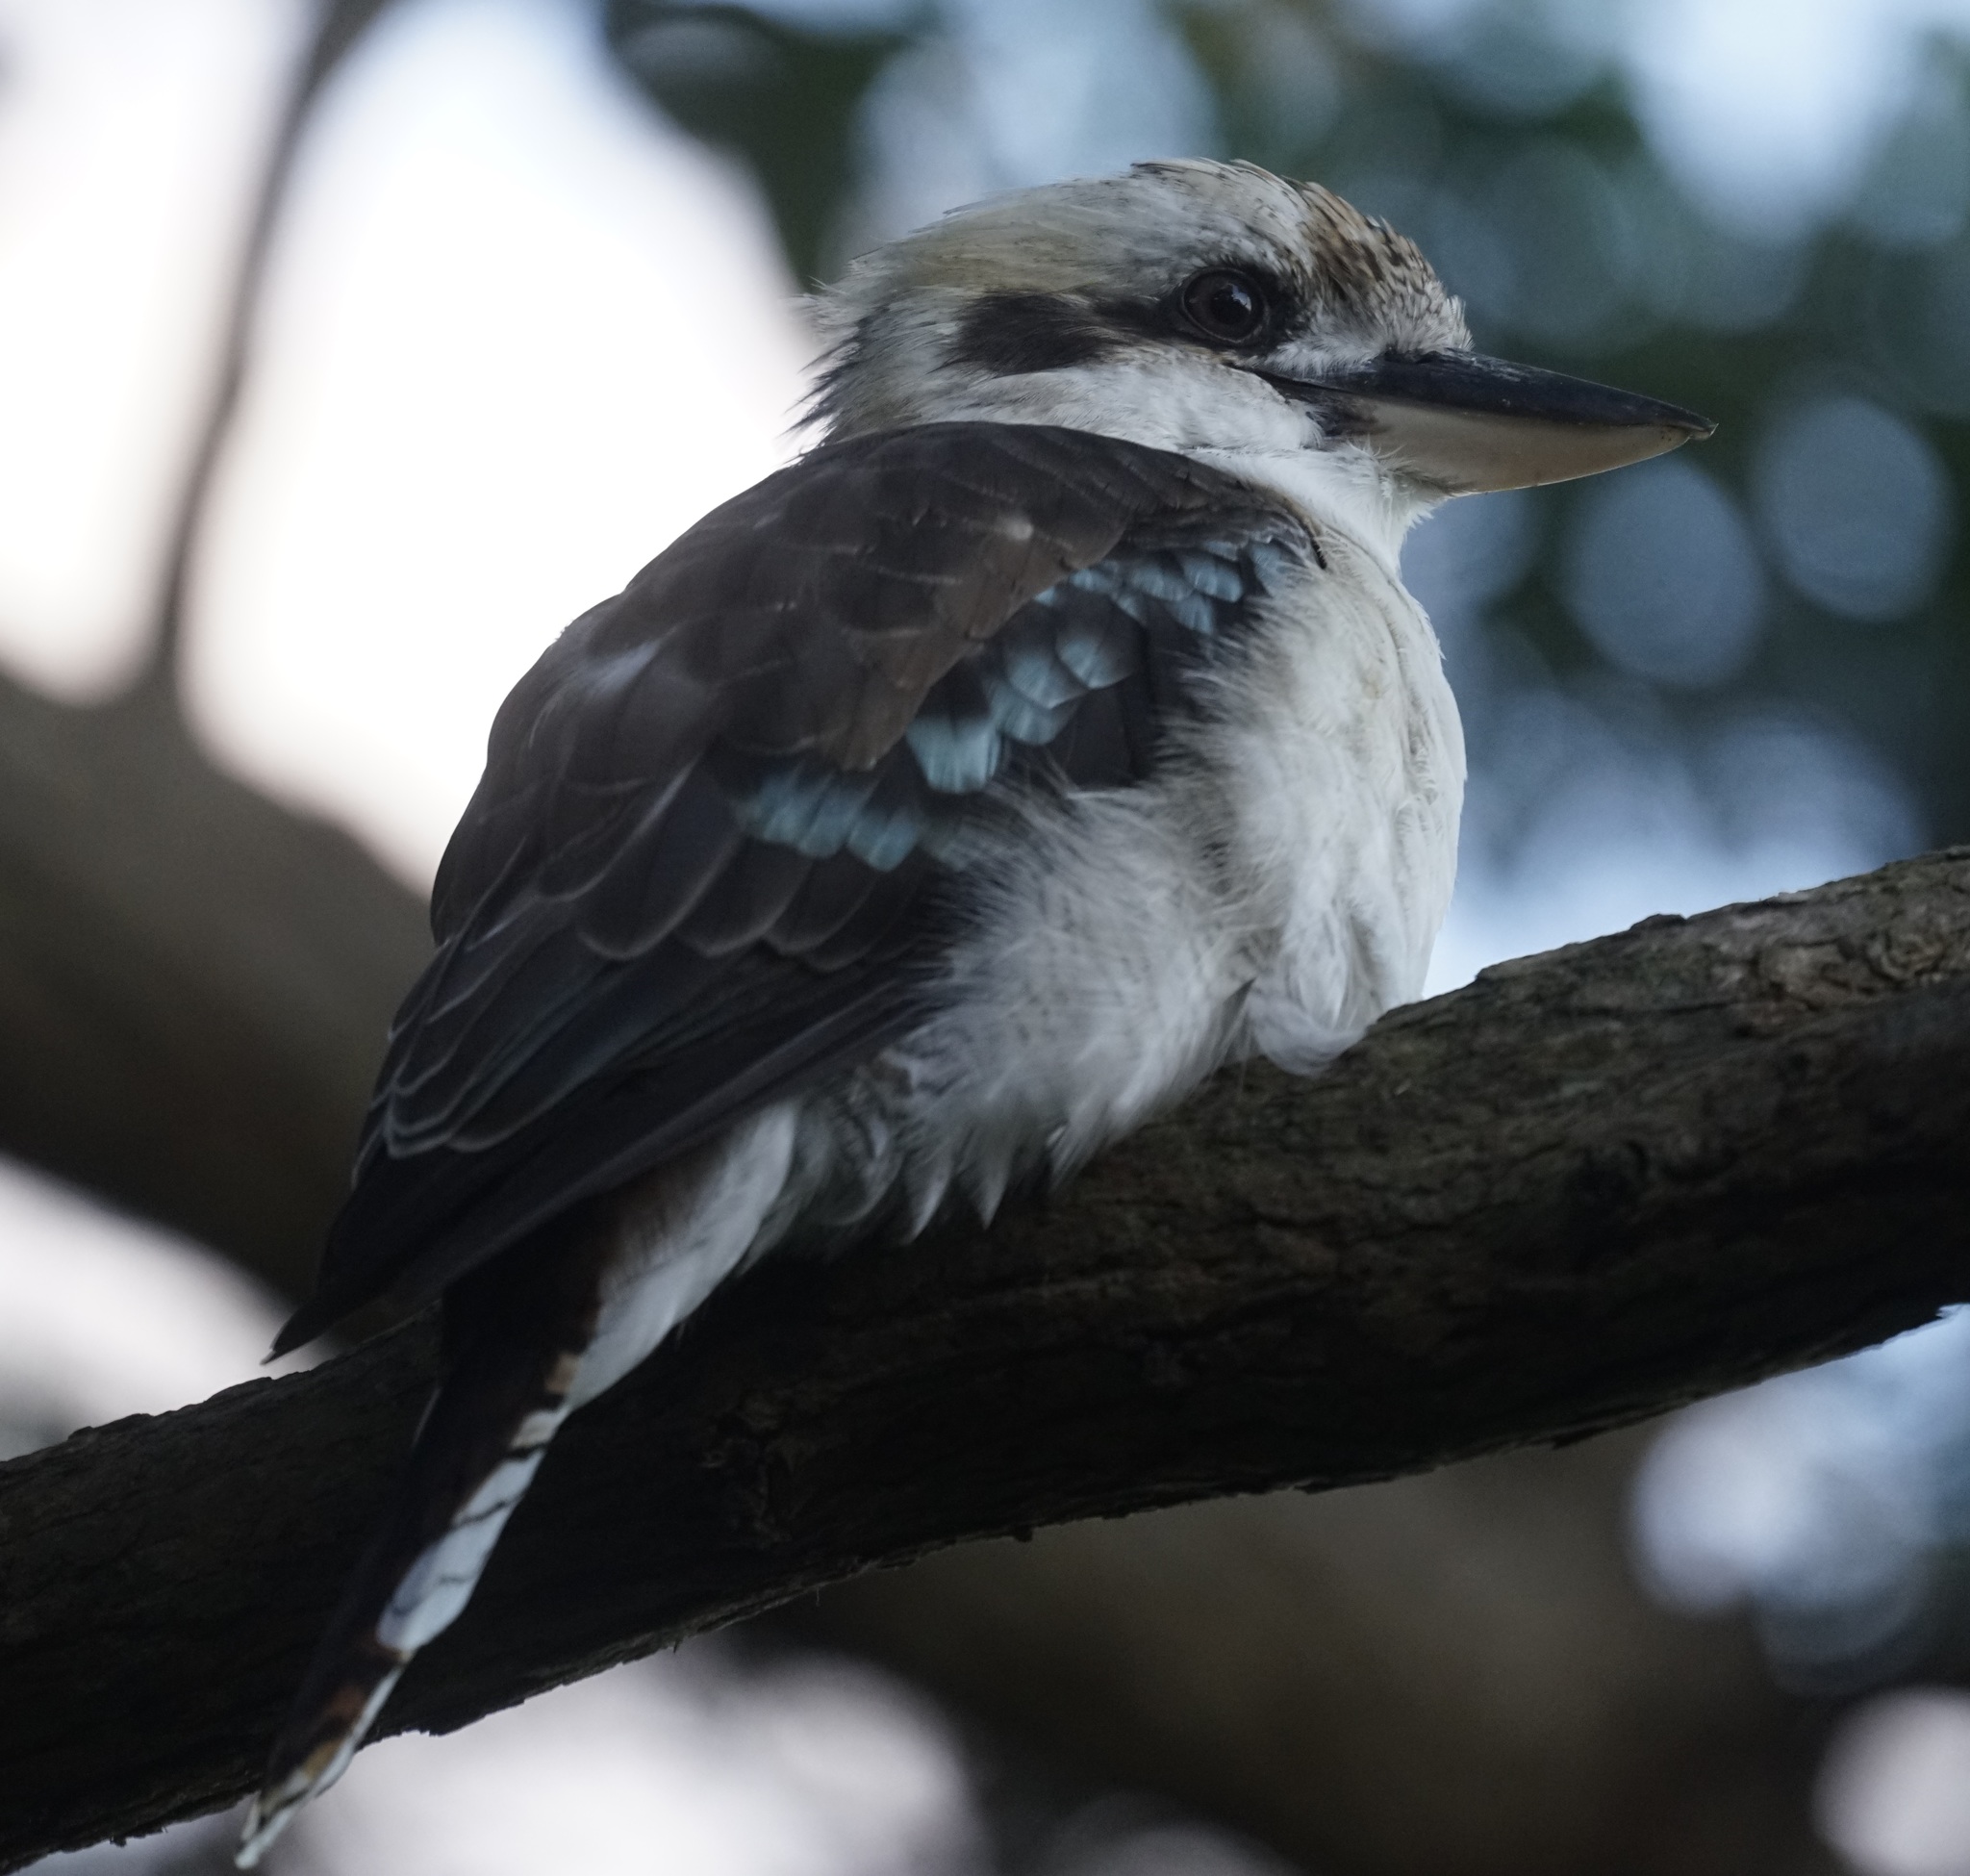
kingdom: Animalia
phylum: Chordata
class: Aves
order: Coraciiformes
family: Alcedinidae
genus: Dacelo
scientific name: Dacelo novaeguineae
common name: Laughing kookaburra
